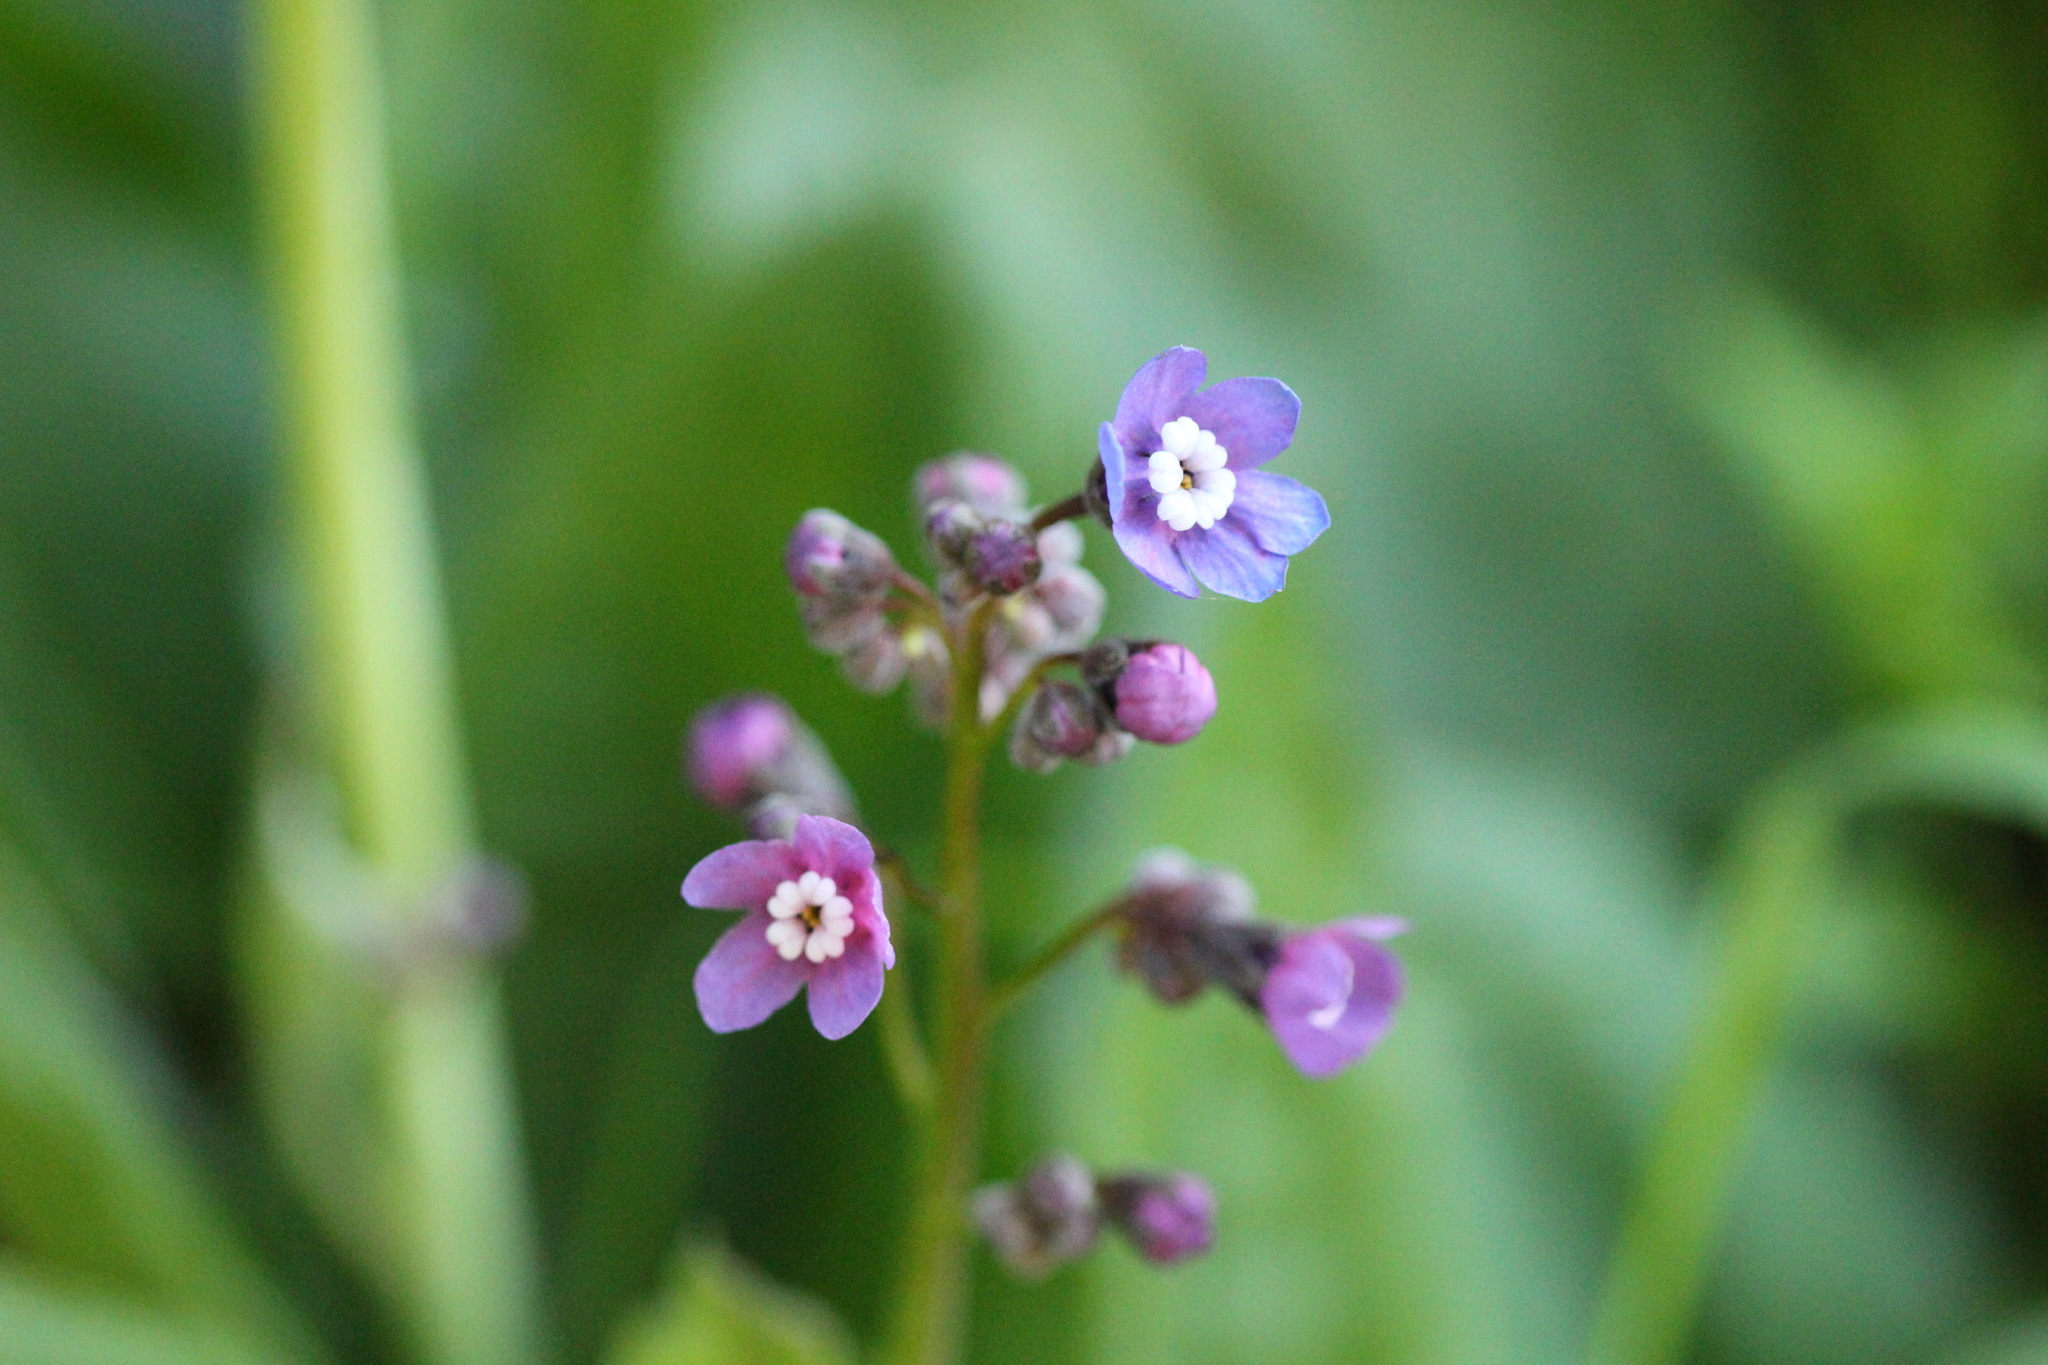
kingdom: Plantae
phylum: Tracheophyta
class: Magnoliopsida
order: Boraginales
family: Boraginaceae
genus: Adelinia
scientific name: Adelinia grande
